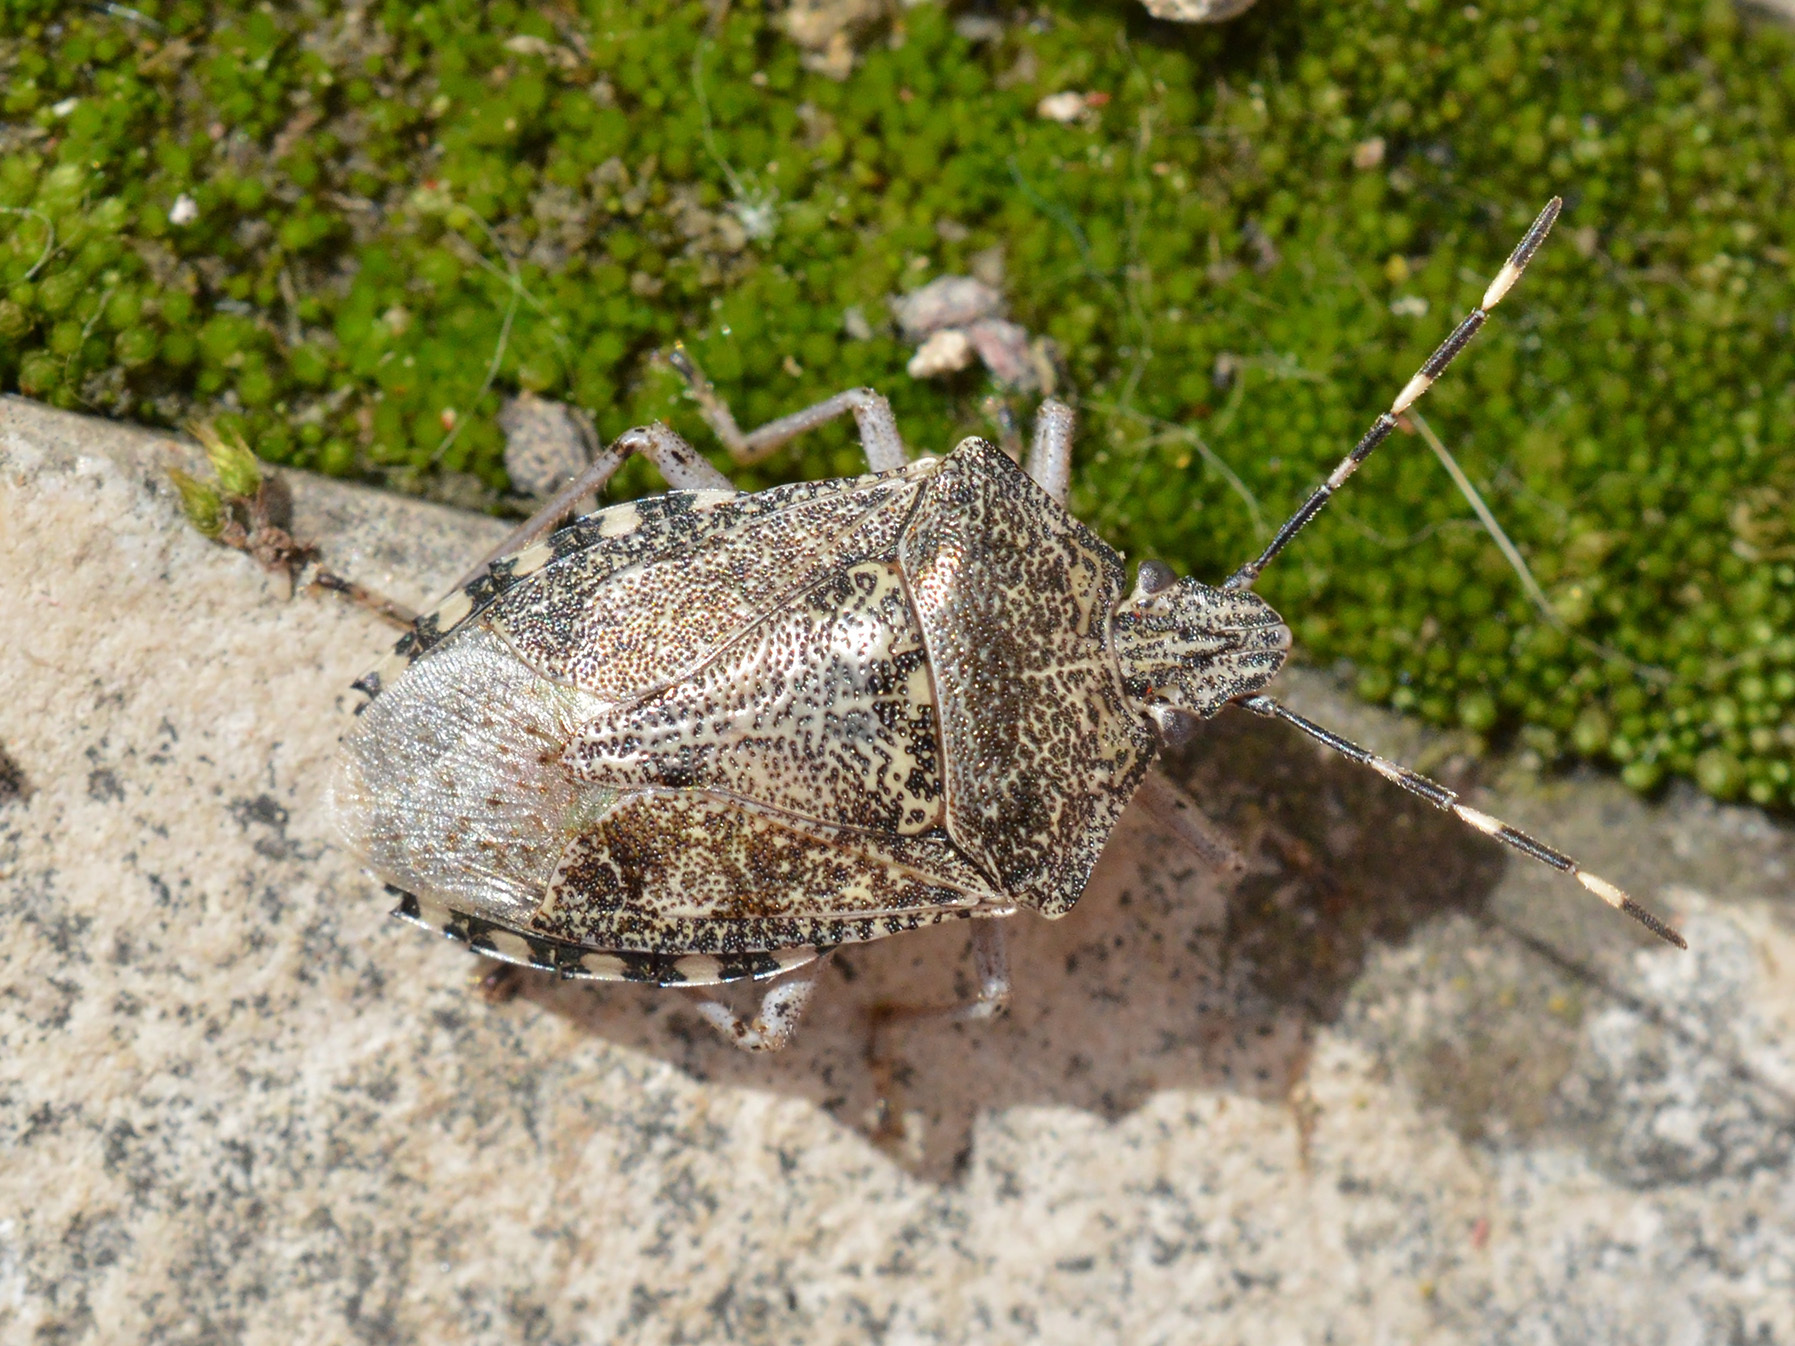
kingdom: Animalia
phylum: Arthropoda
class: Insecta
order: Hemiptera
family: Pentatomidae
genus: Rhaphigaster
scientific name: Rhaphigaster nebulosa
